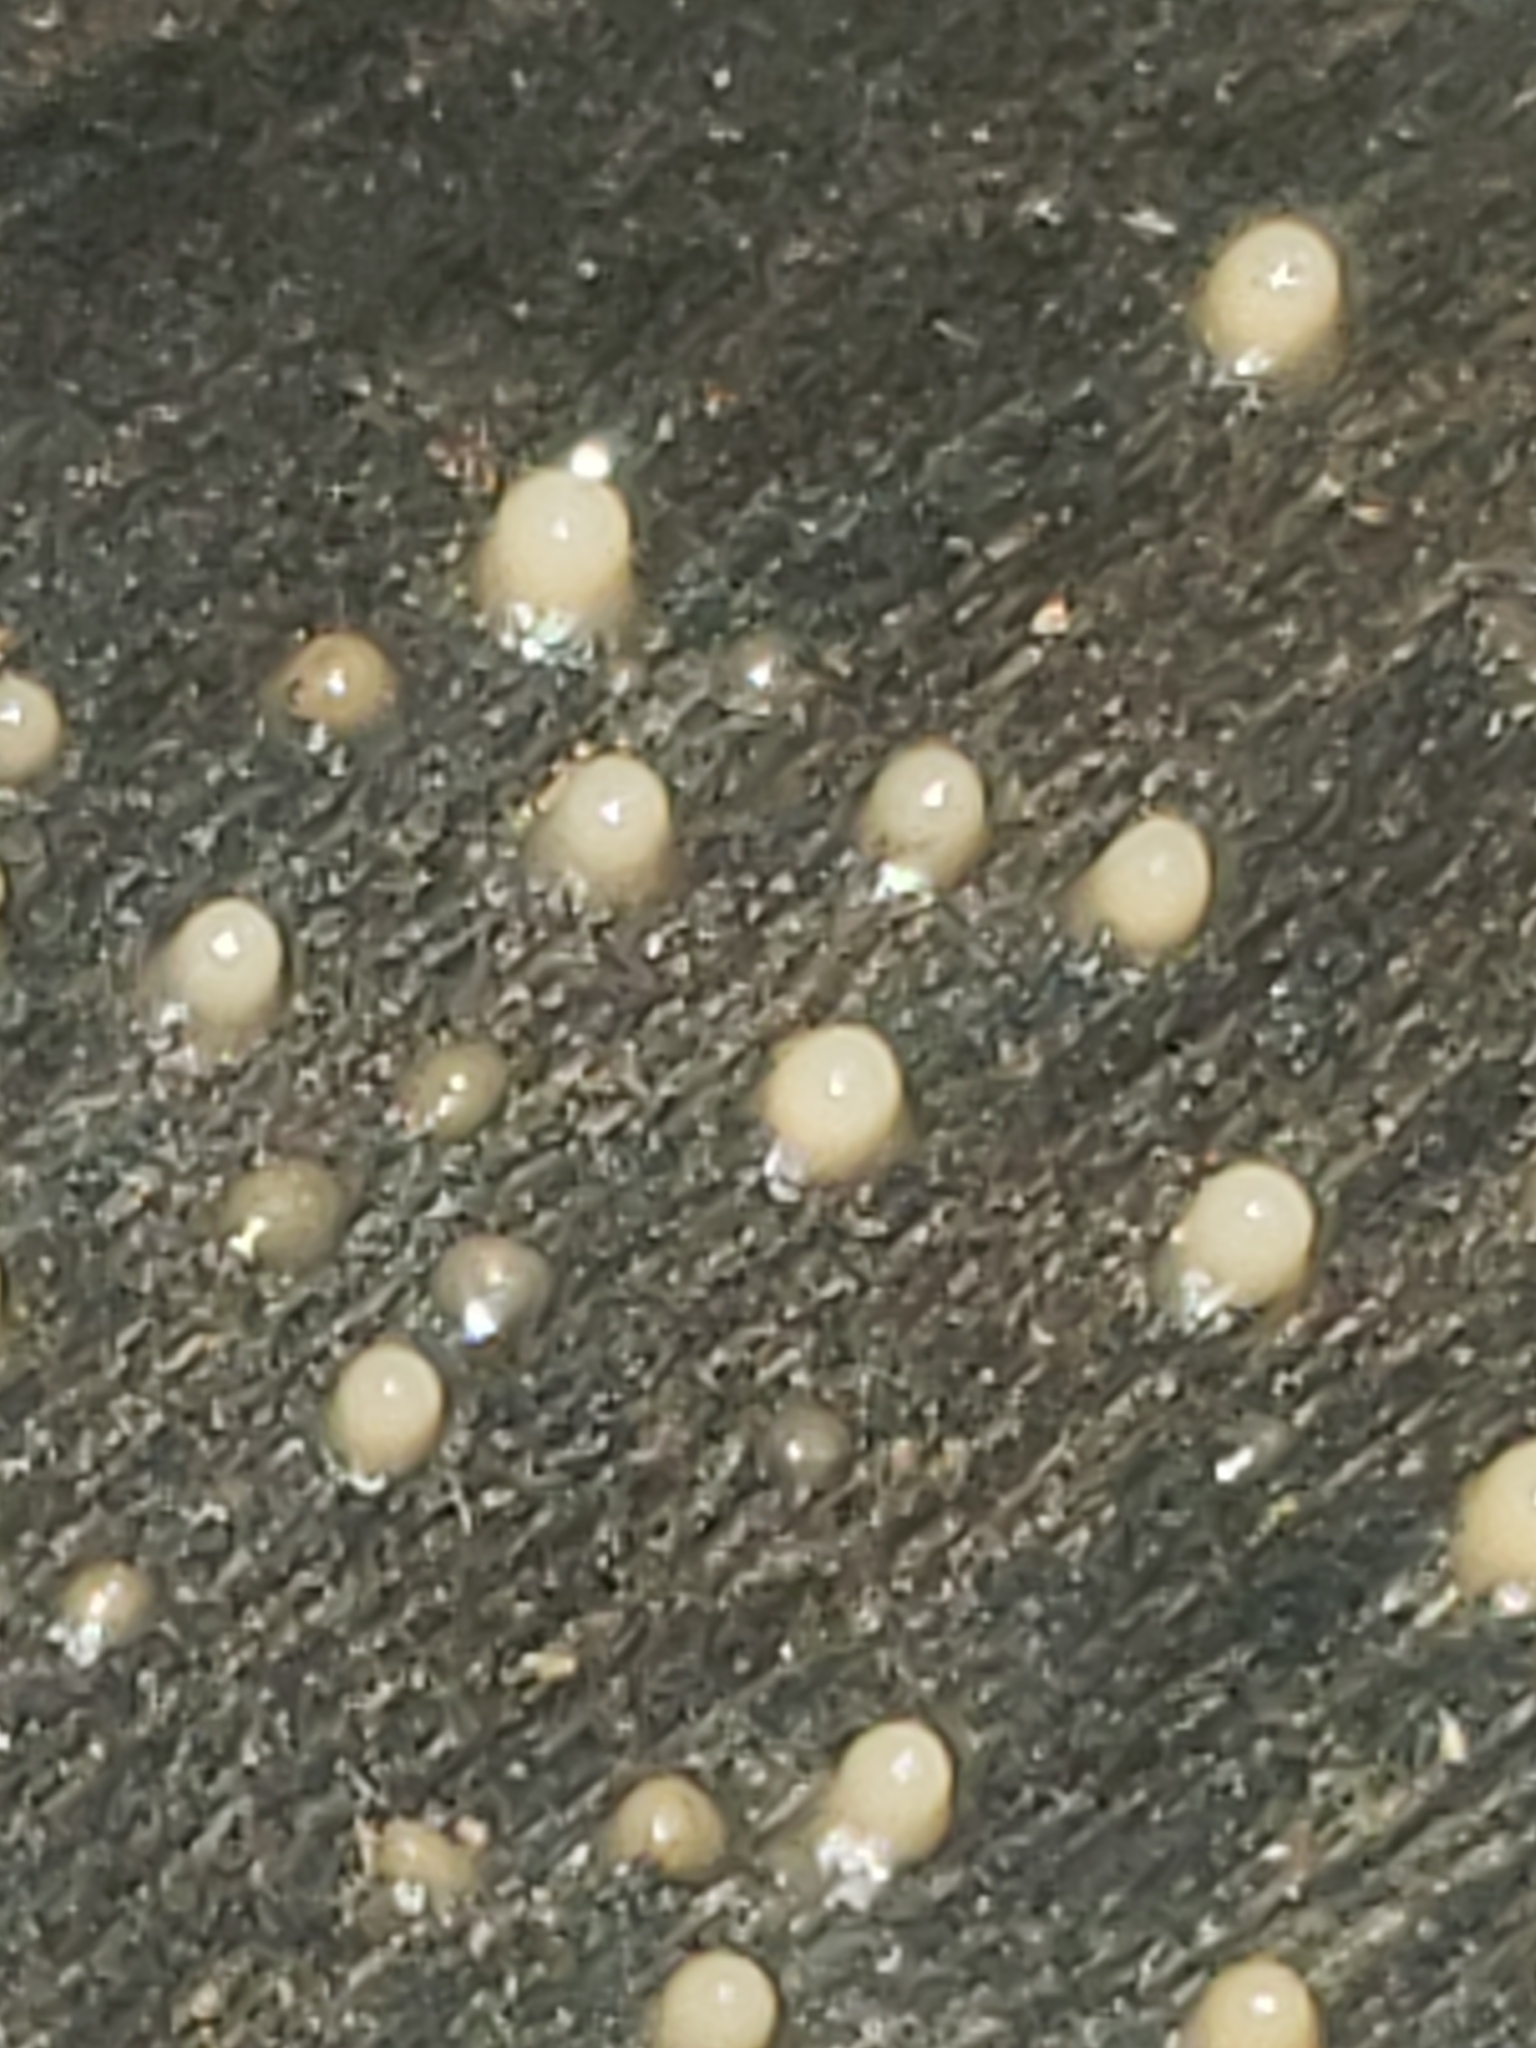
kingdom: Fungi
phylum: Basidiomycota
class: Atractiellomycetes
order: Atractiellales
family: Phleogenaceae
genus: Helicogloea
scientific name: Helicogloea compressa
